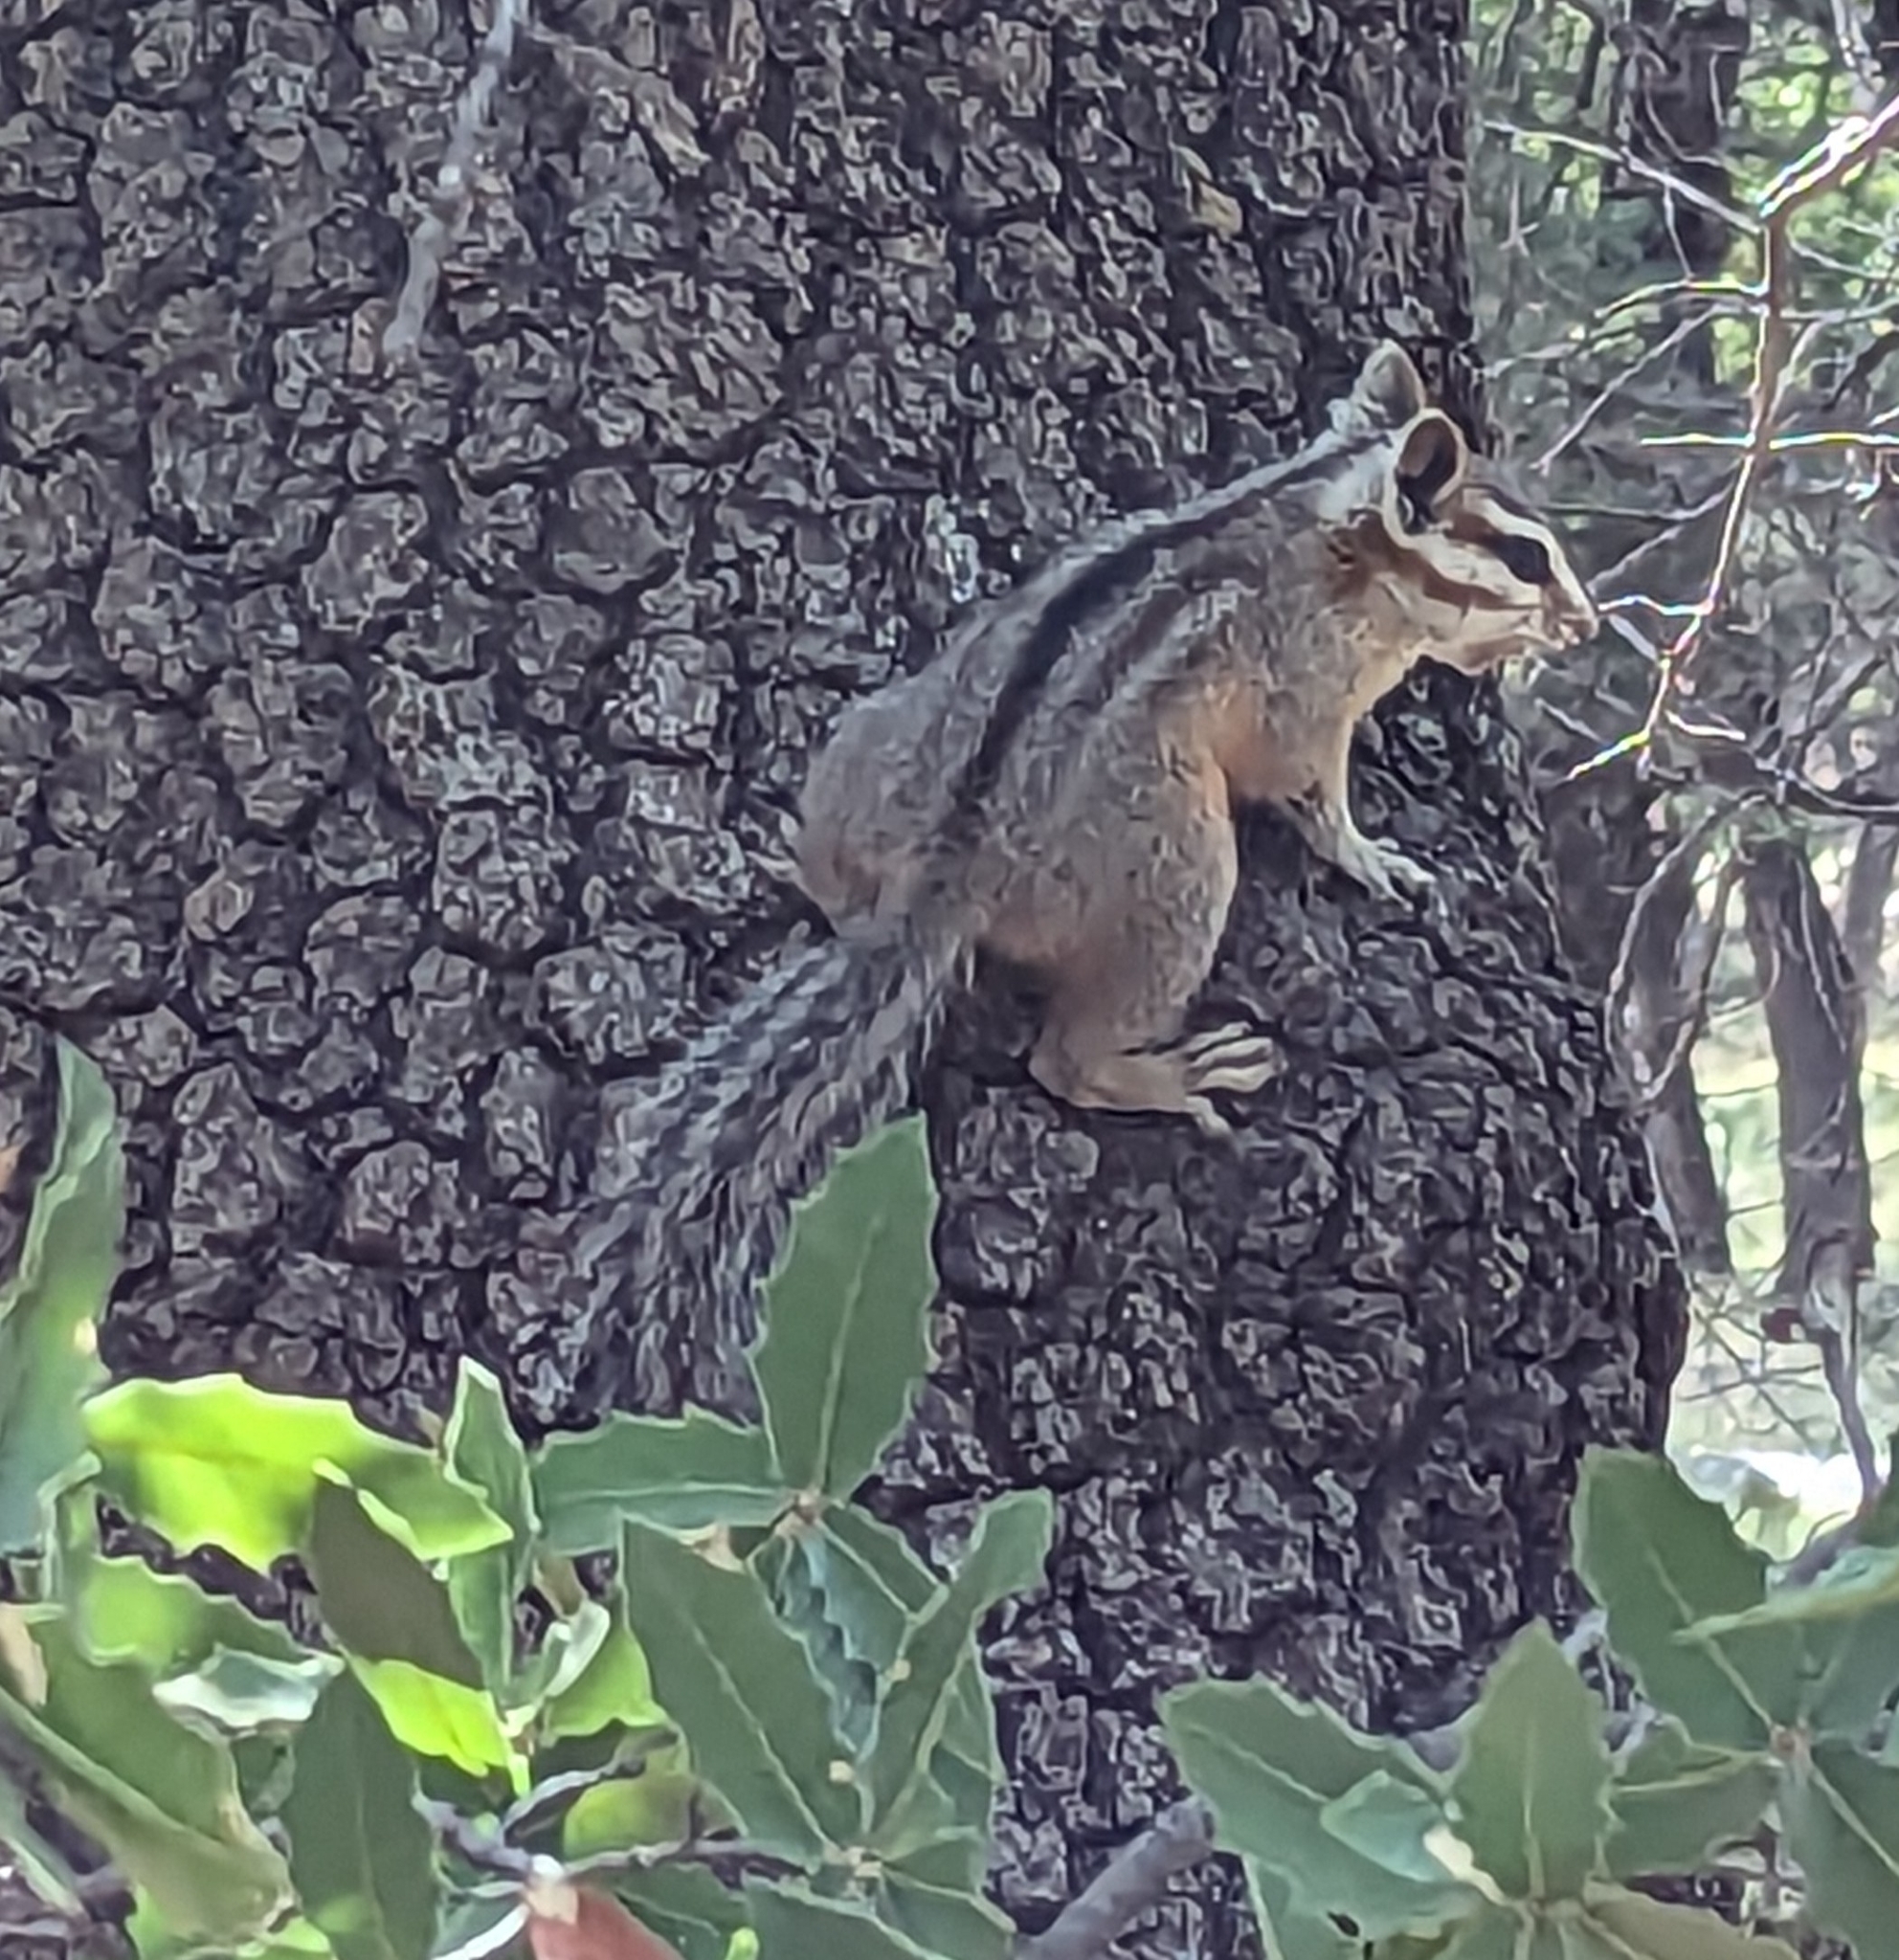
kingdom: Animalia
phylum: Chordata
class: Mammalia
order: Rodentia
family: Sciuridae
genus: Tamias
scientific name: Tamias dorsalis
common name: Cliff chipmunk
